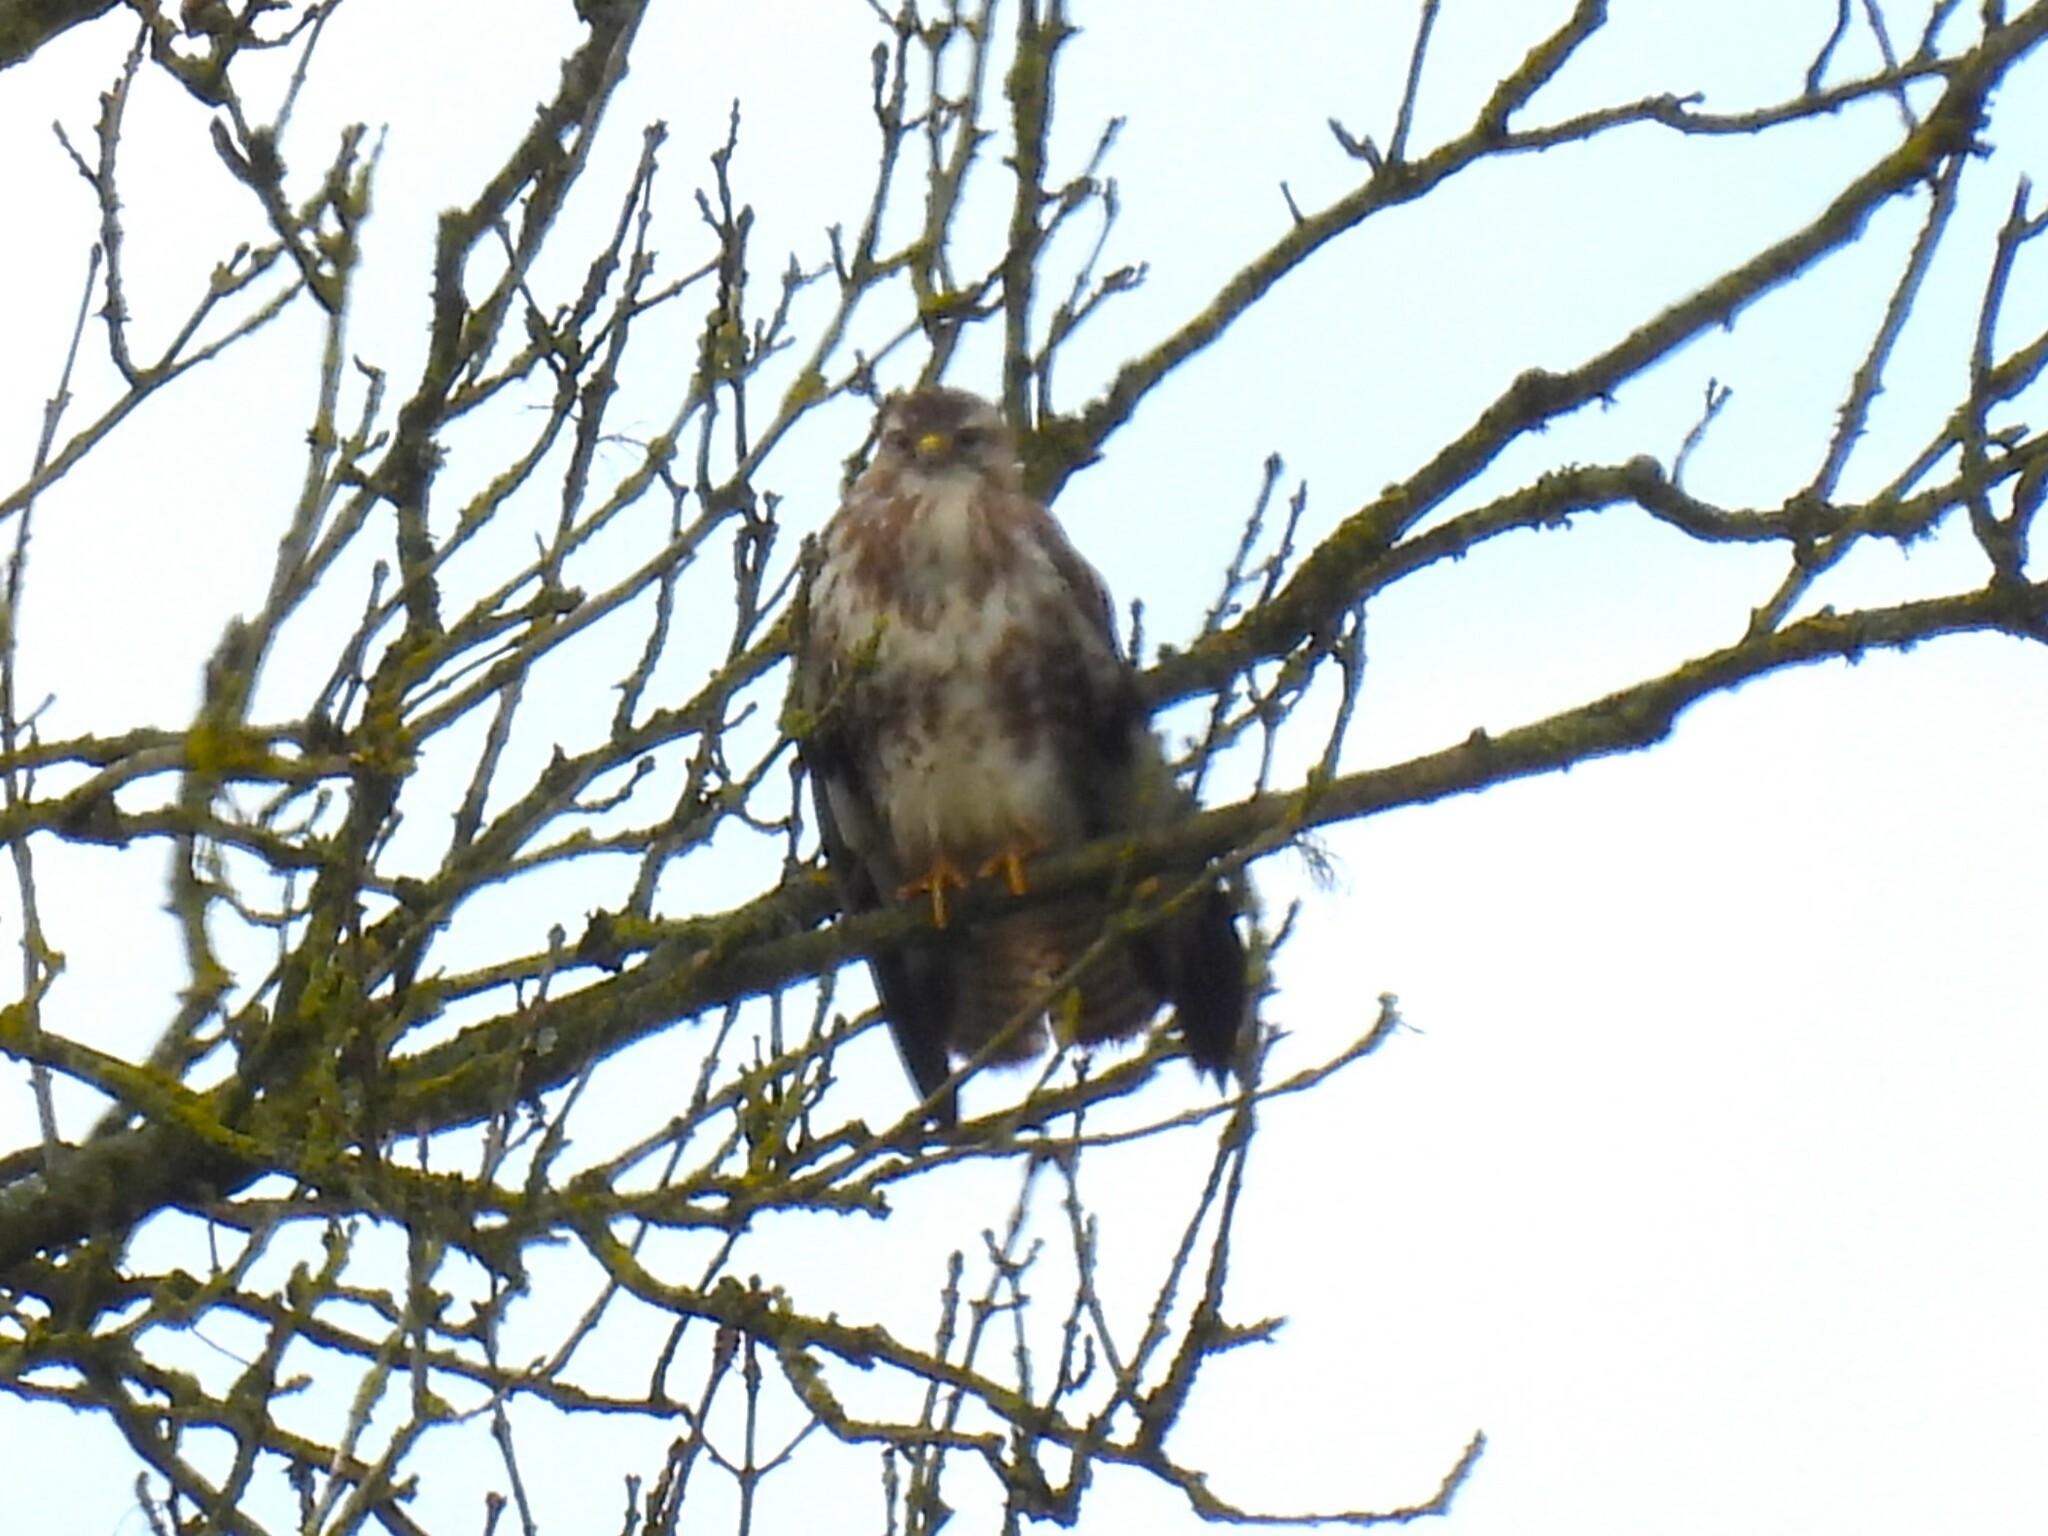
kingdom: Animalia
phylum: Chordata
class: Aves
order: Accipitriformes
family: Accipitridae
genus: Buteo
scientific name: Buteo buteo
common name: Common buzzard
